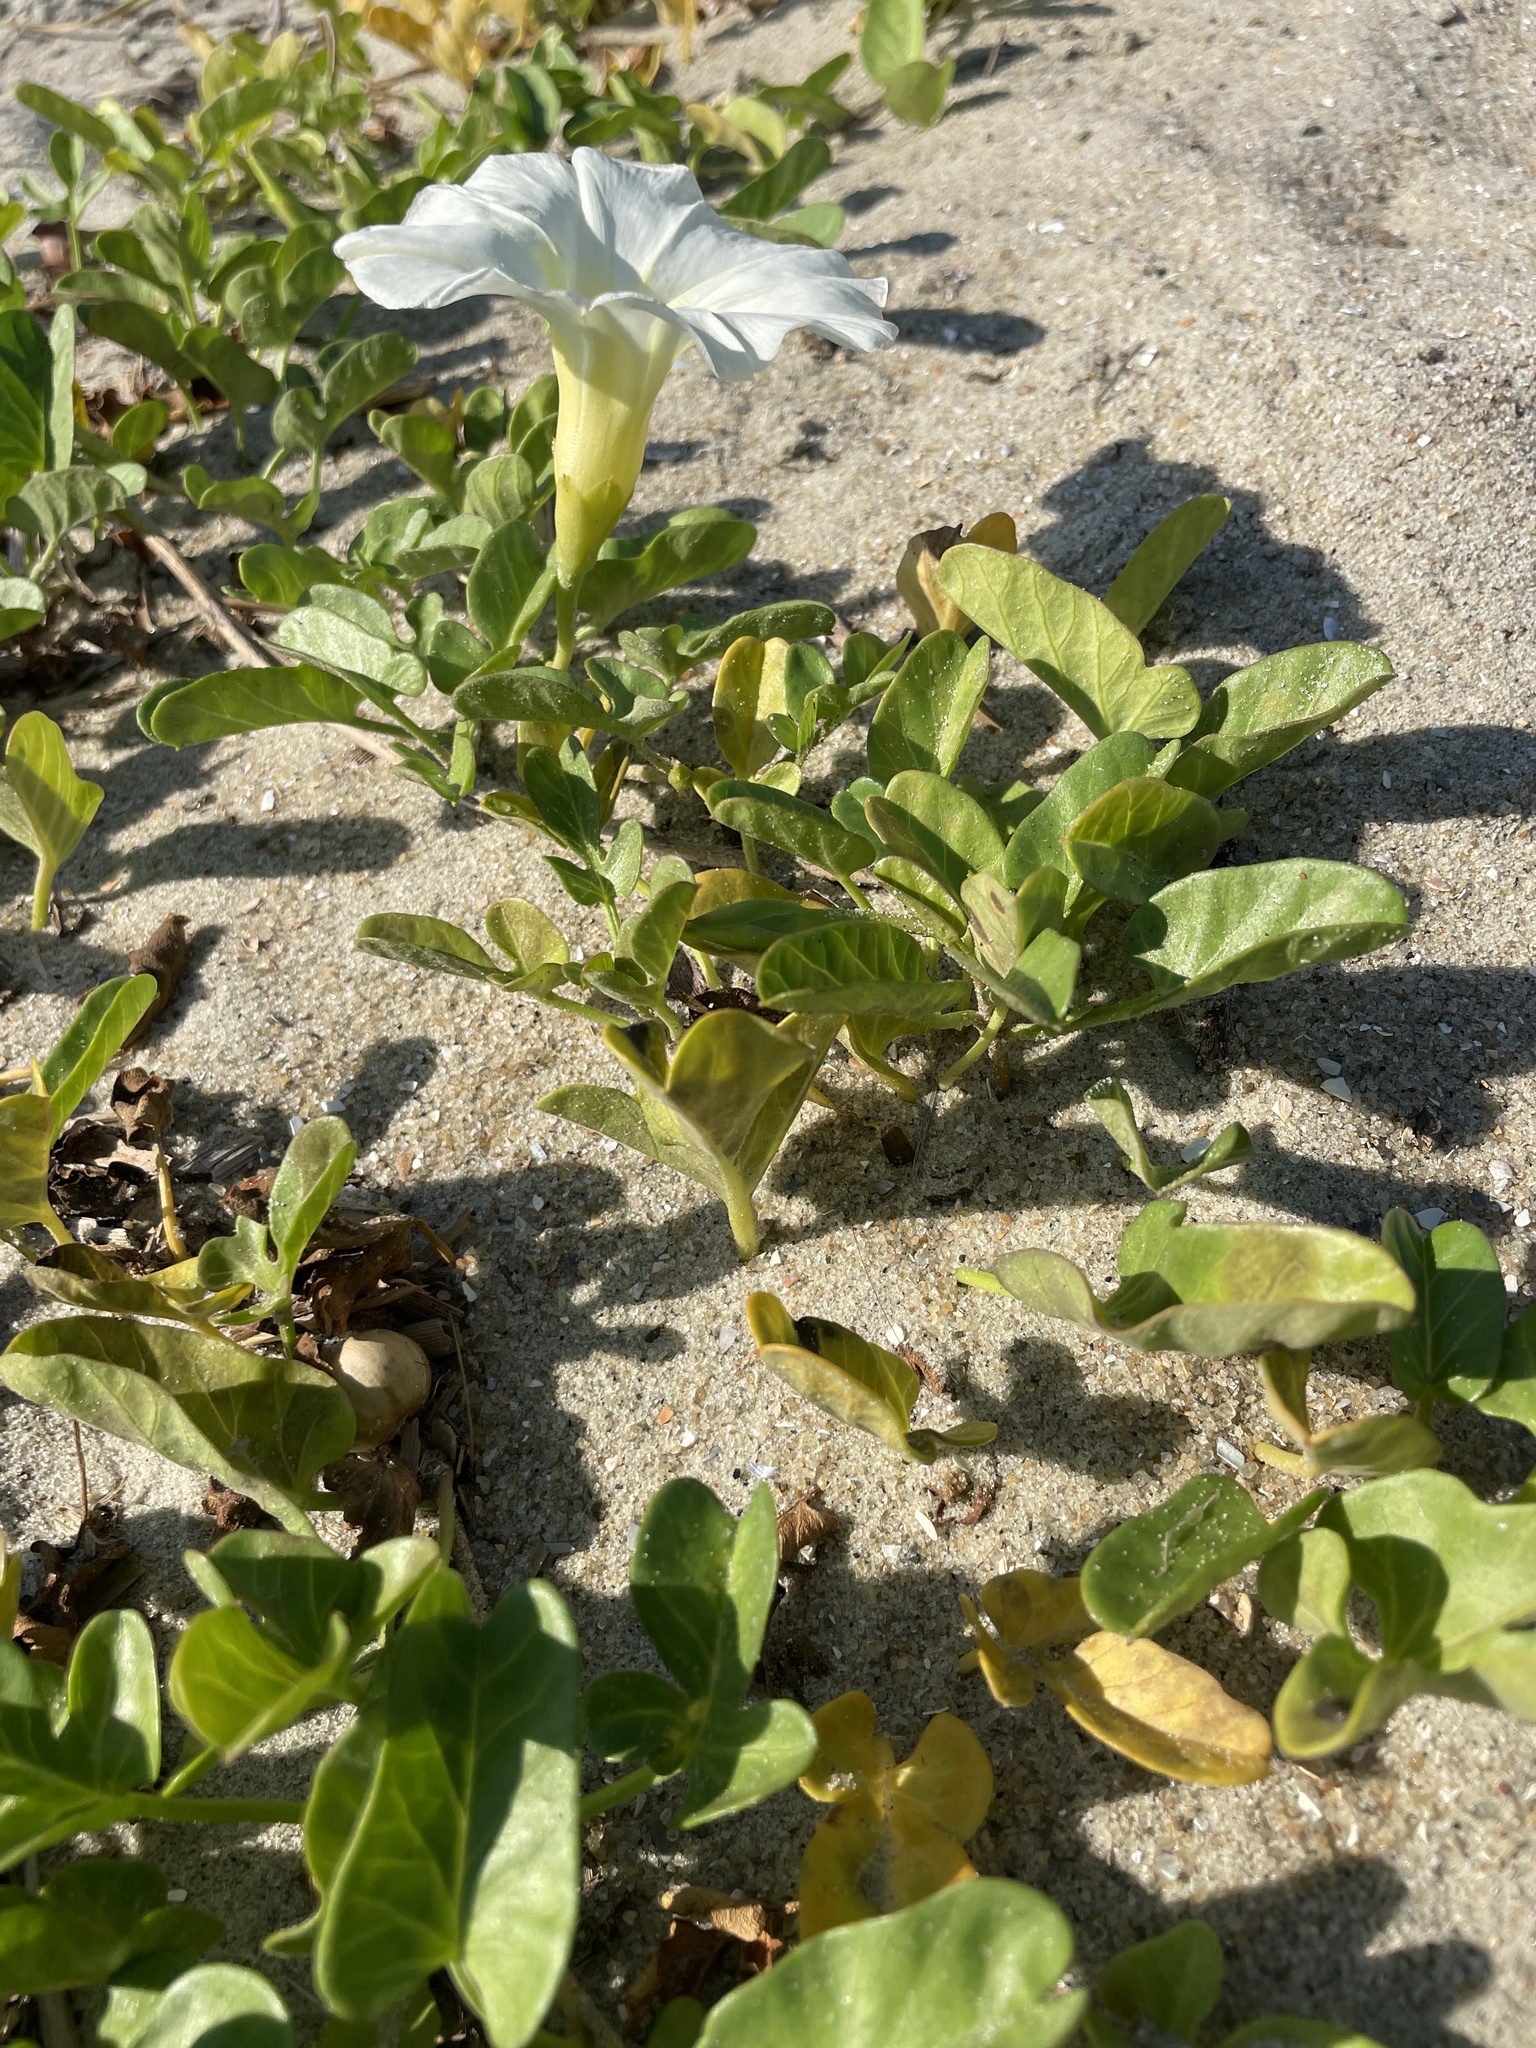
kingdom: Plantae
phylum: Tracheophyta
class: Magnoliopsida
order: Solanales
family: Convolvulaceae
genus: Ipomoea
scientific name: Ipomoea imperati
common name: Fiddle-leaf morning-glory
